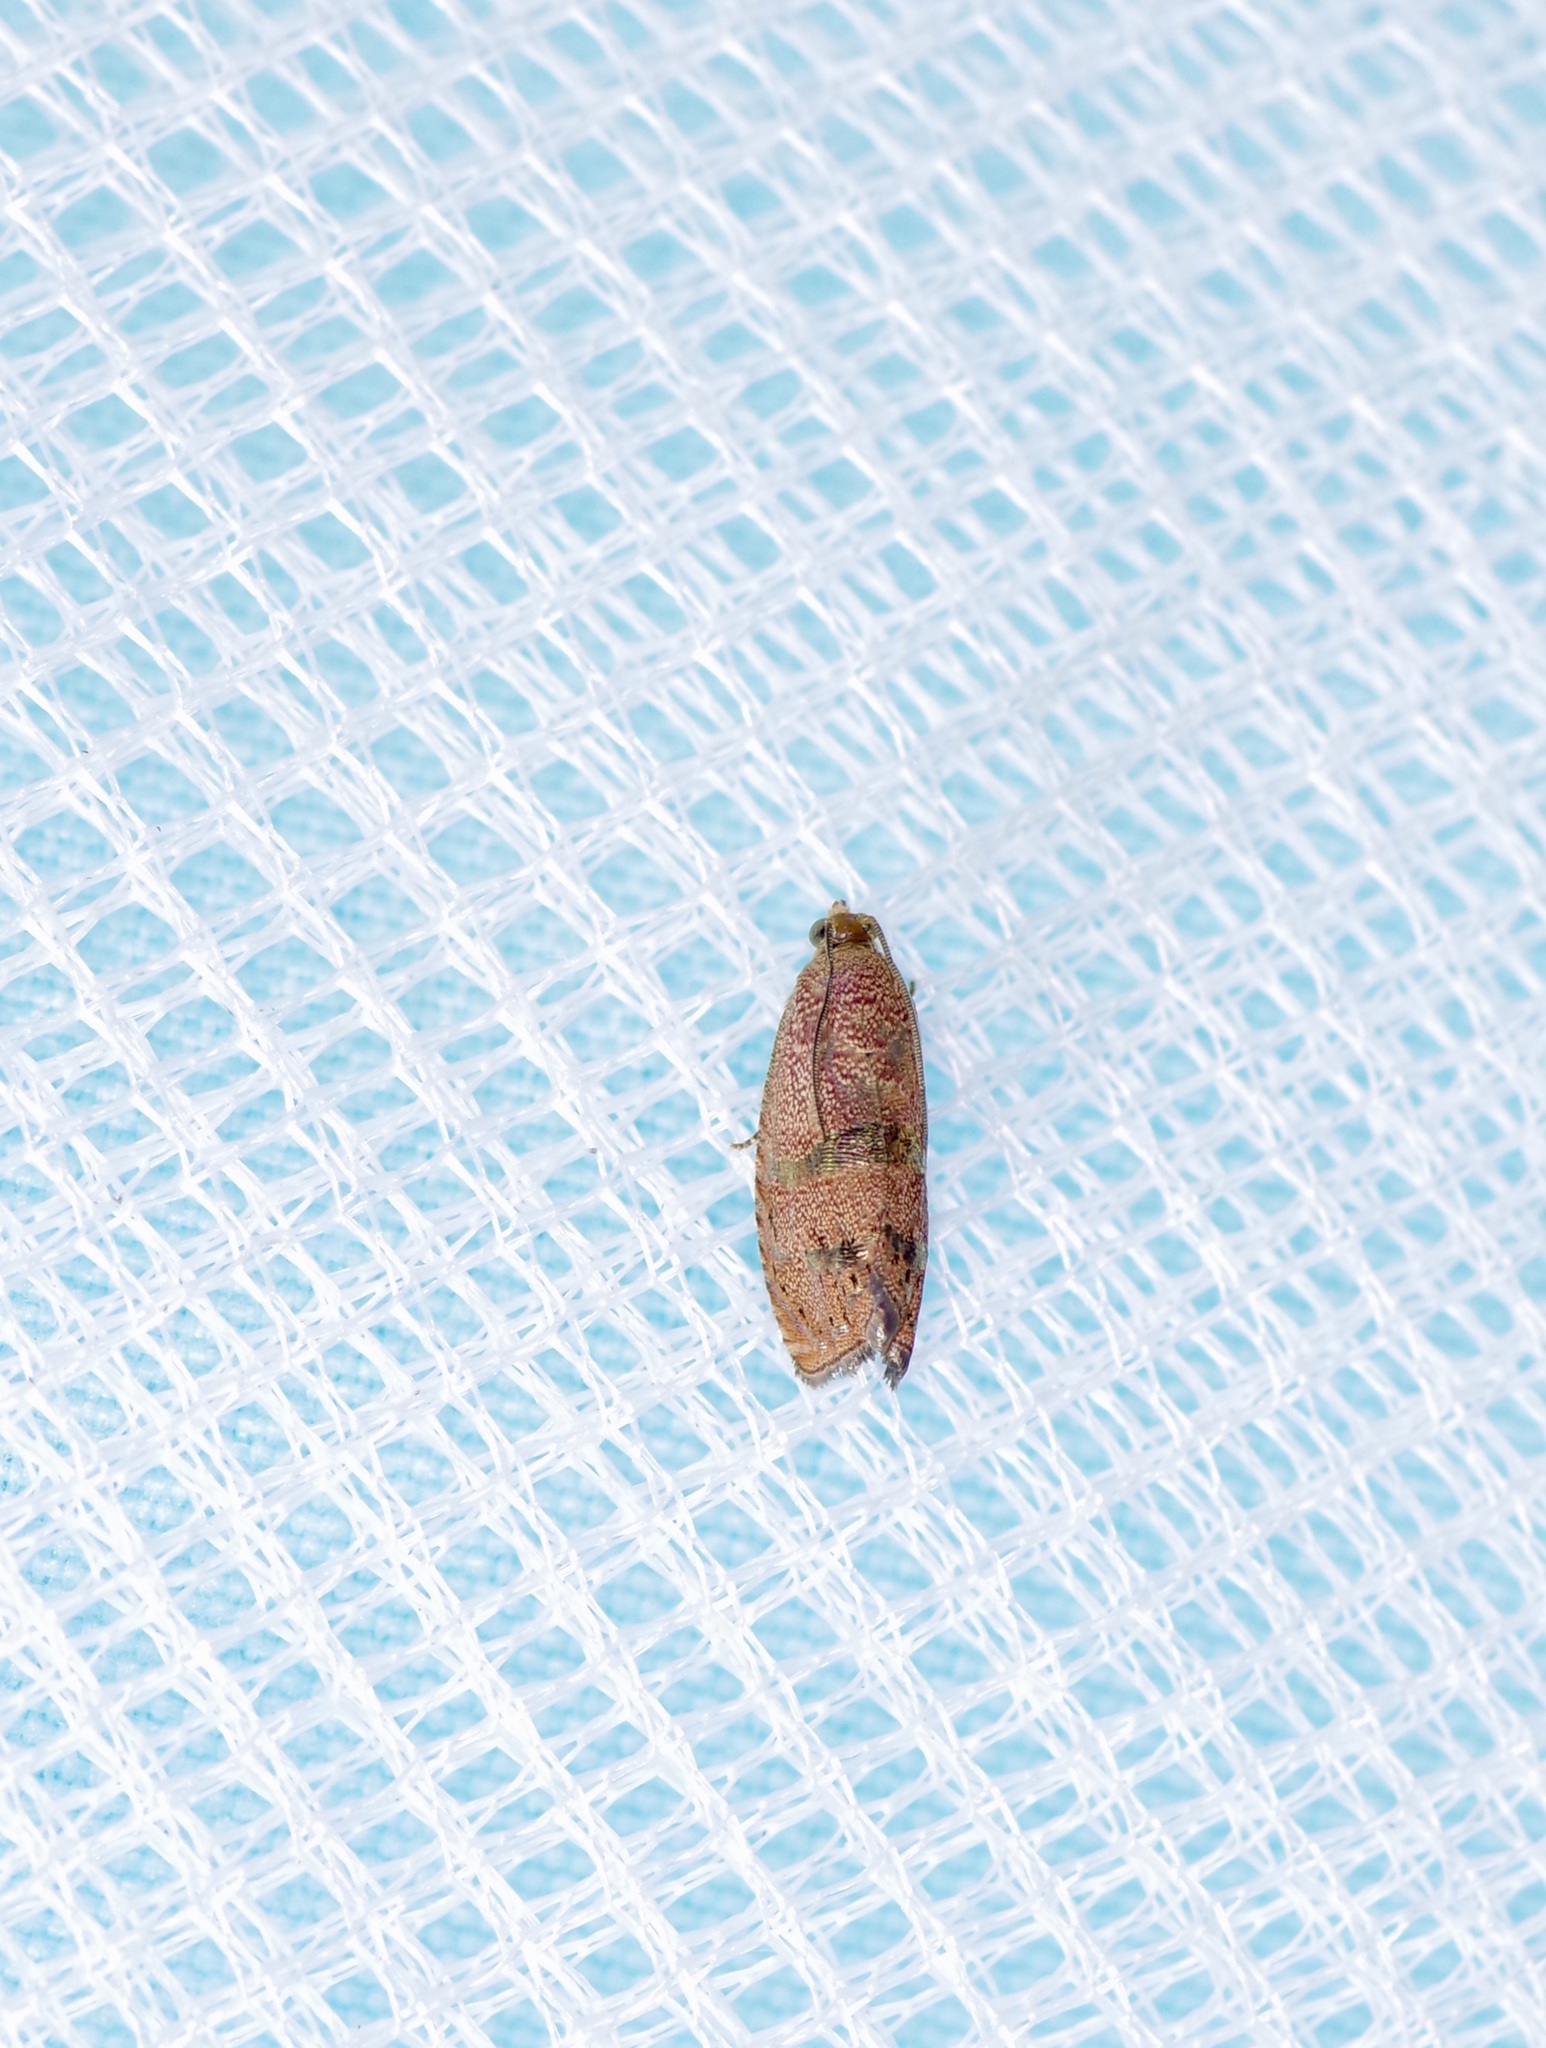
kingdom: Animalia
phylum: Arthropoda
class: Insecta
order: Lepidoptera
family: Tortricidae
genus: Cydia
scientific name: Cydia latiferreana
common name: Filbertworm moth
